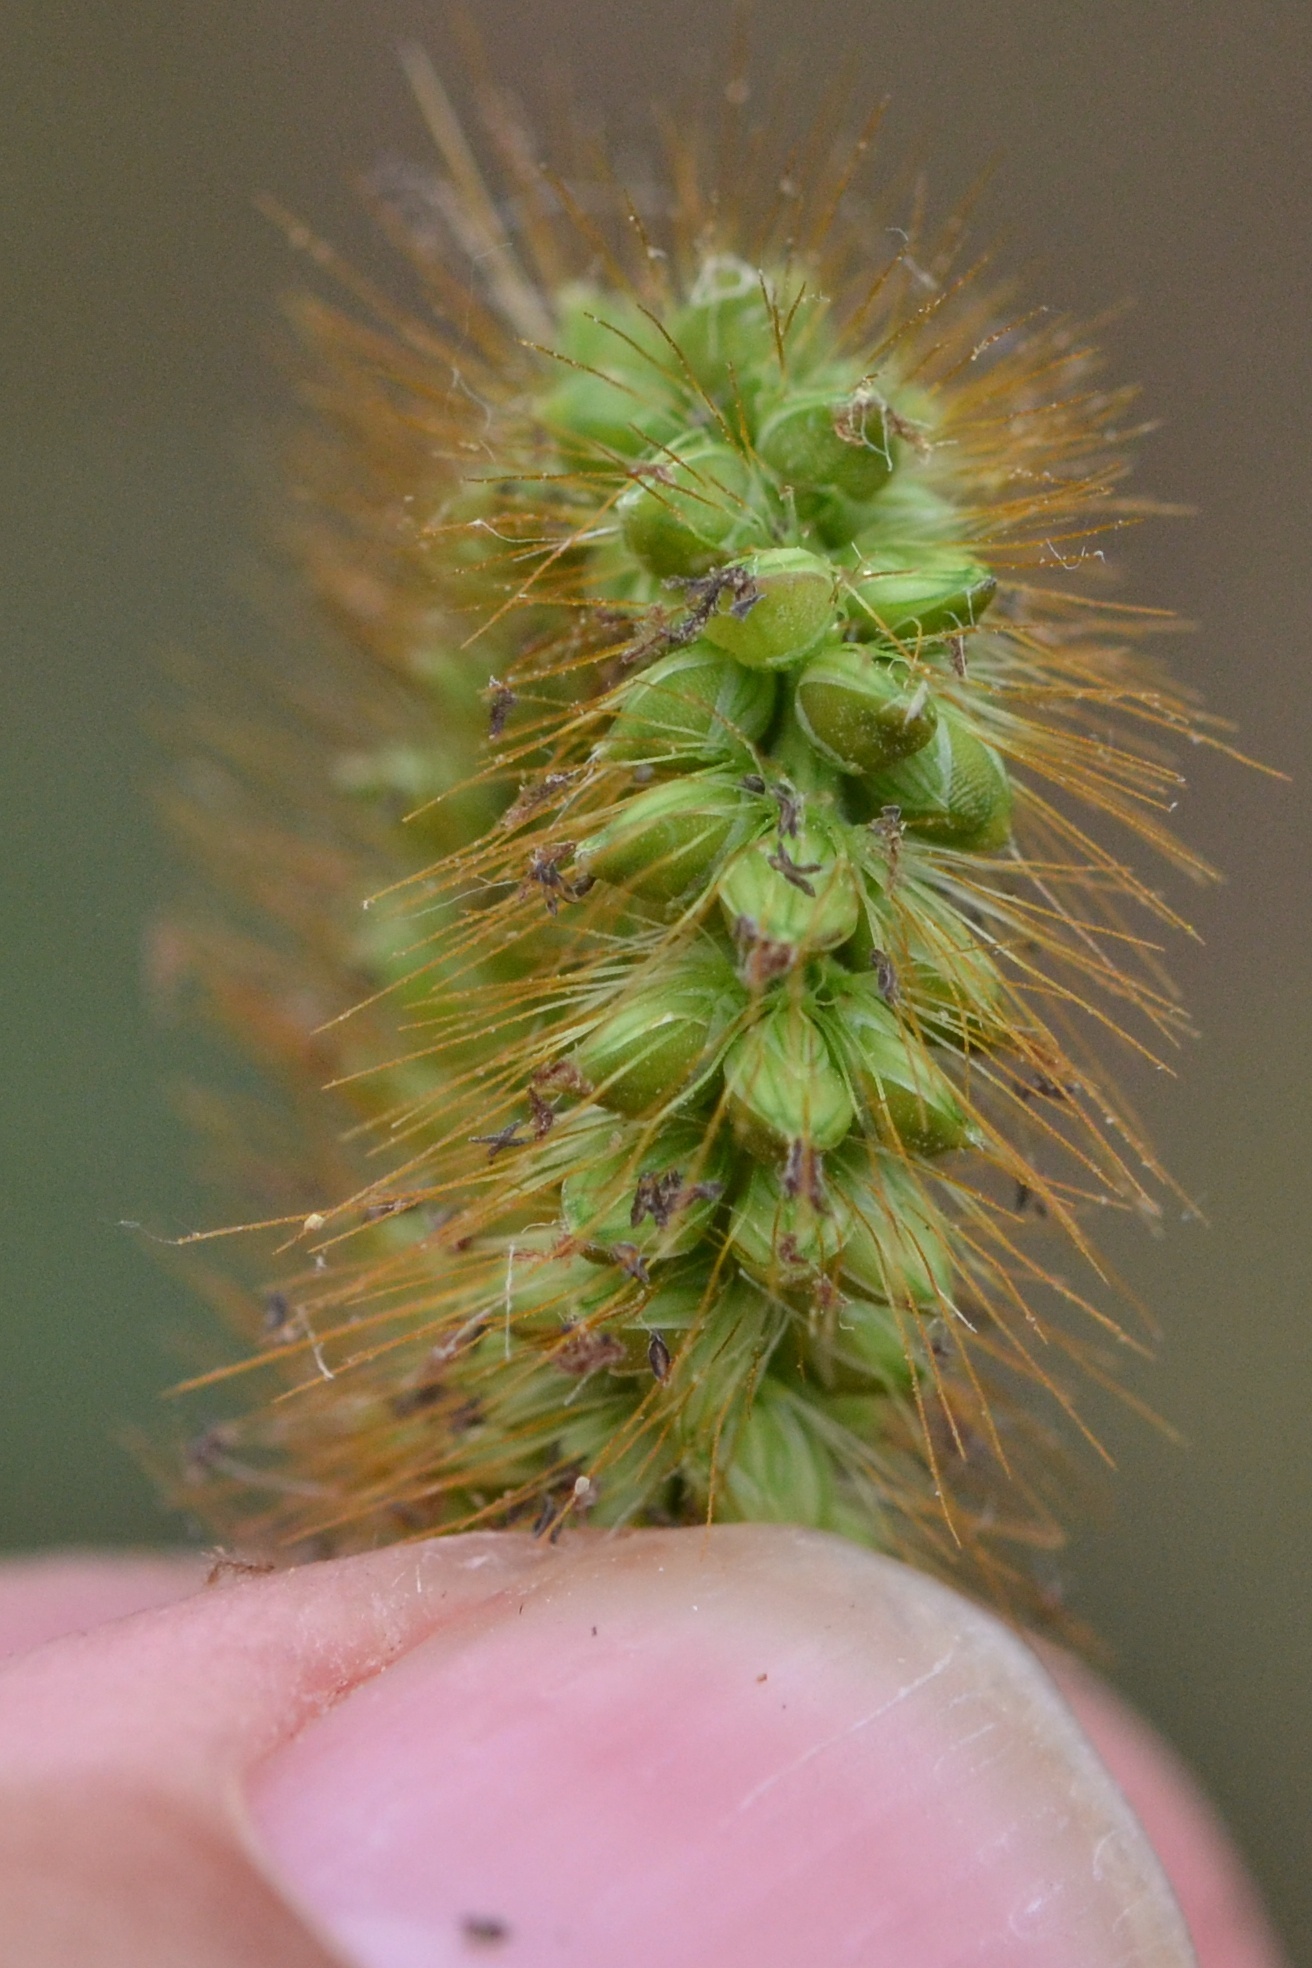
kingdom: Plantae
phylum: Tracheophyta
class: Liliopsida
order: Poales
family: Poaceae
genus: Setaria
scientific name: Setaria pumila
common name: Yellow bristle-grass
